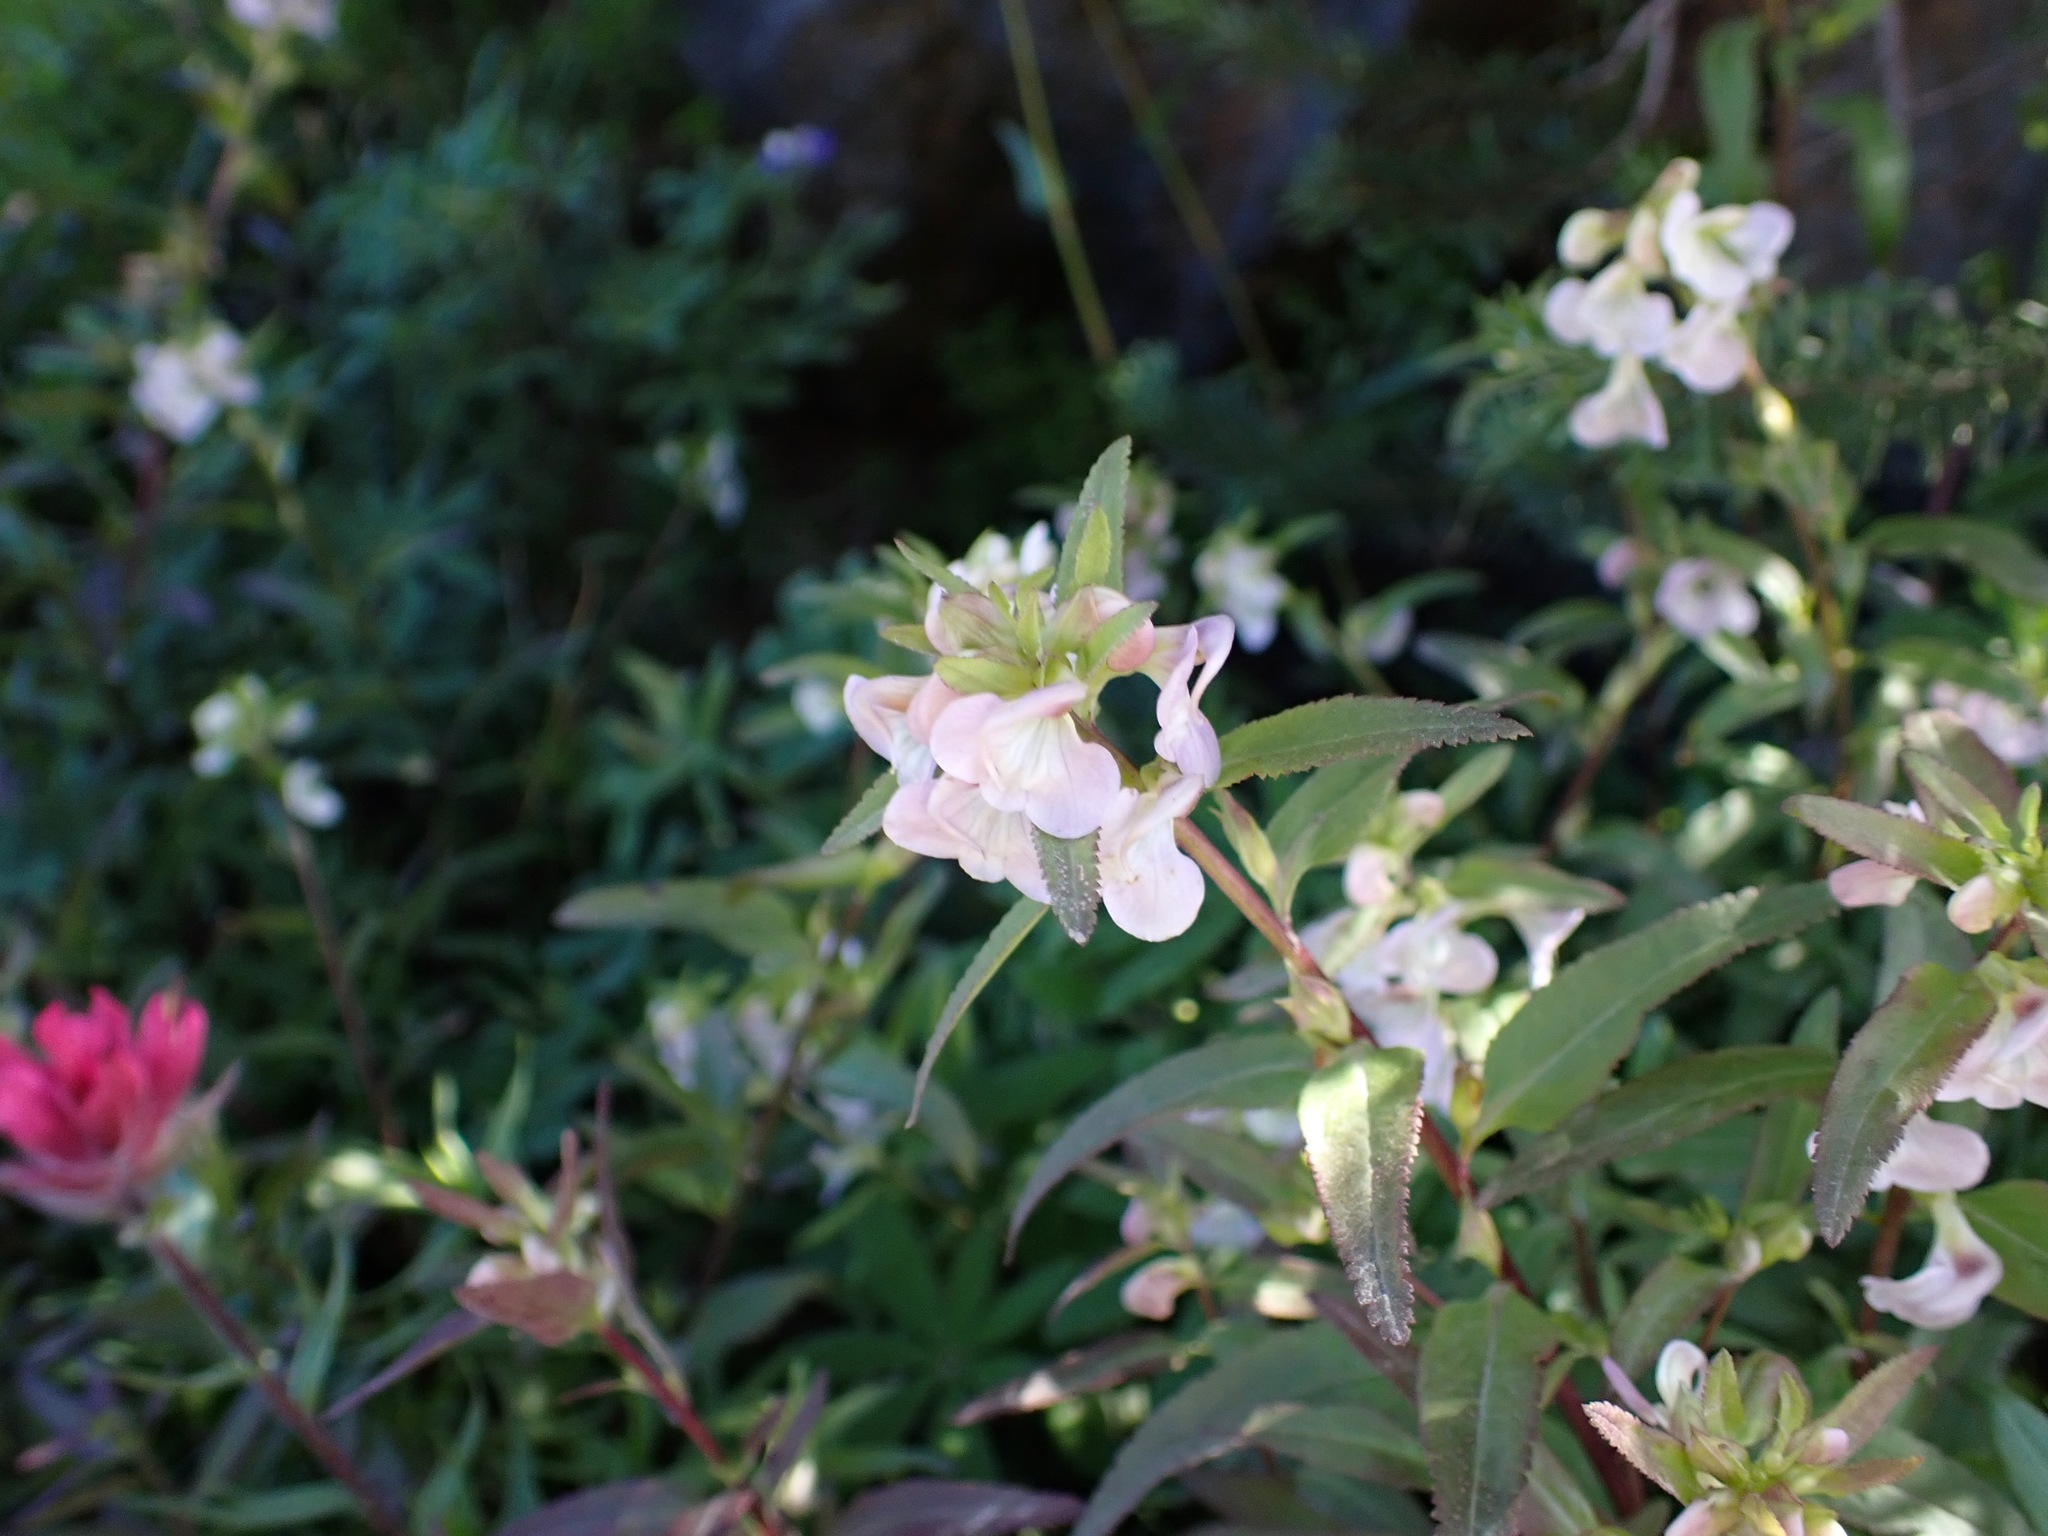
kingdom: Plantae
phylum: Tracheophyta
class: Magnoliopsida
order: Lamiales
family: Orobanchaceae
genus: Pedicularis
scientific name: Pedicularis racemosa
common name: Leafy lousewort
